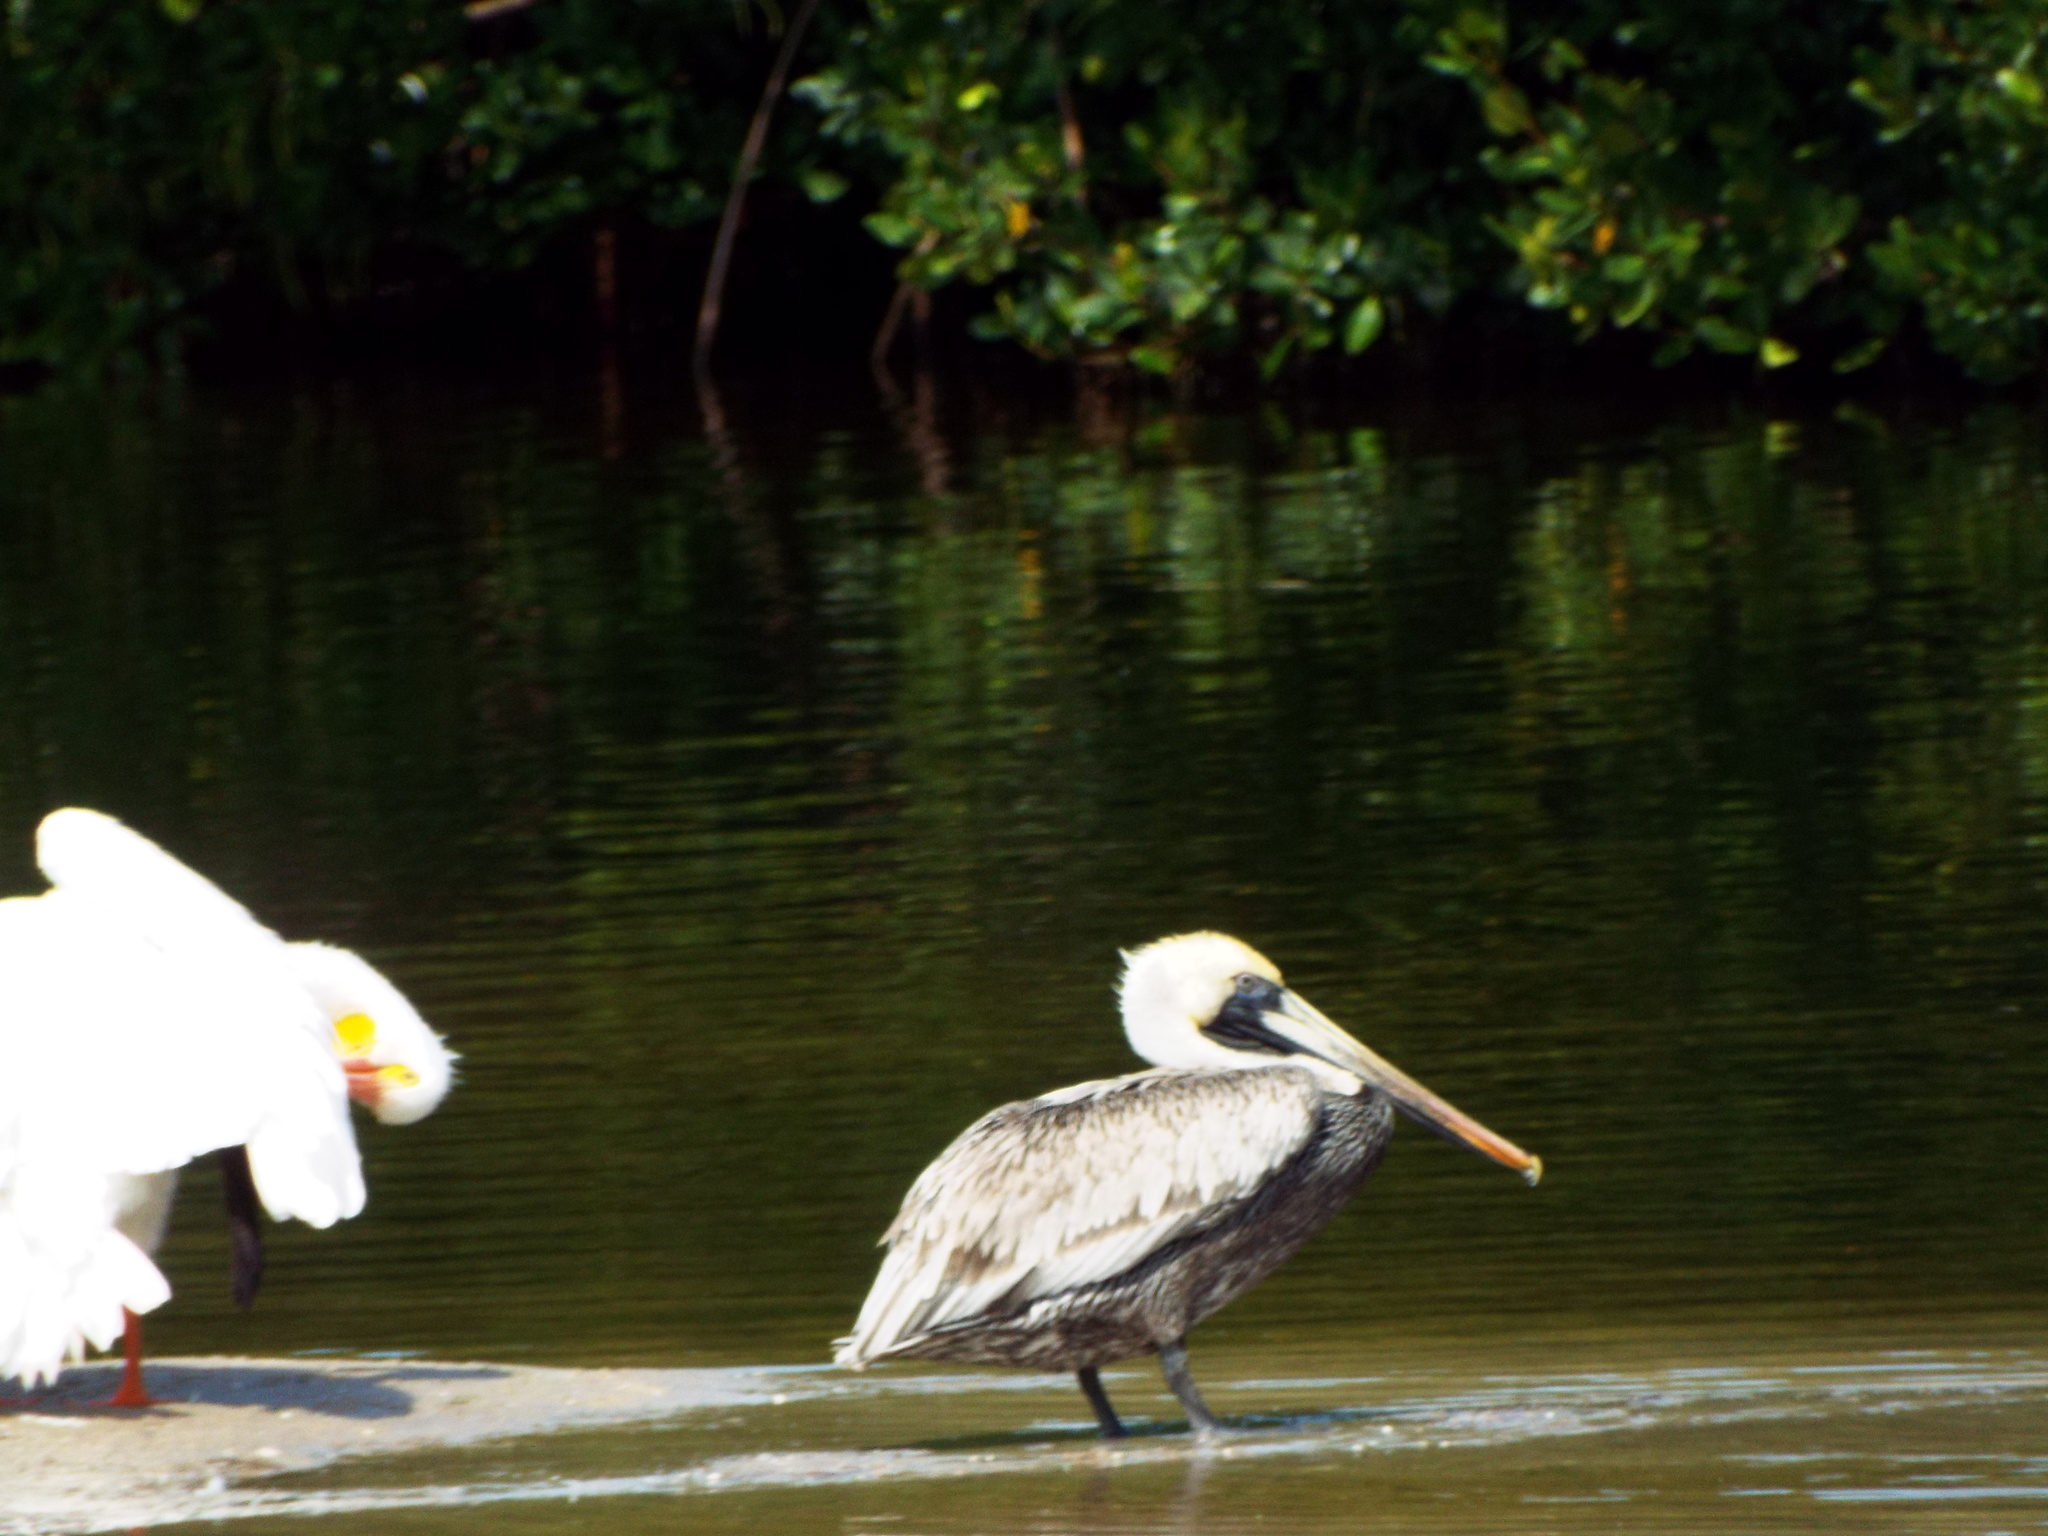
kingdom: Animalia
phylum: Chordata
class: Aves
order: Pelecaniformes
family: Pelecanidae
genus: Pelecanus
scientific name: Pelecanus occidentalis
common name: Brown pelican
